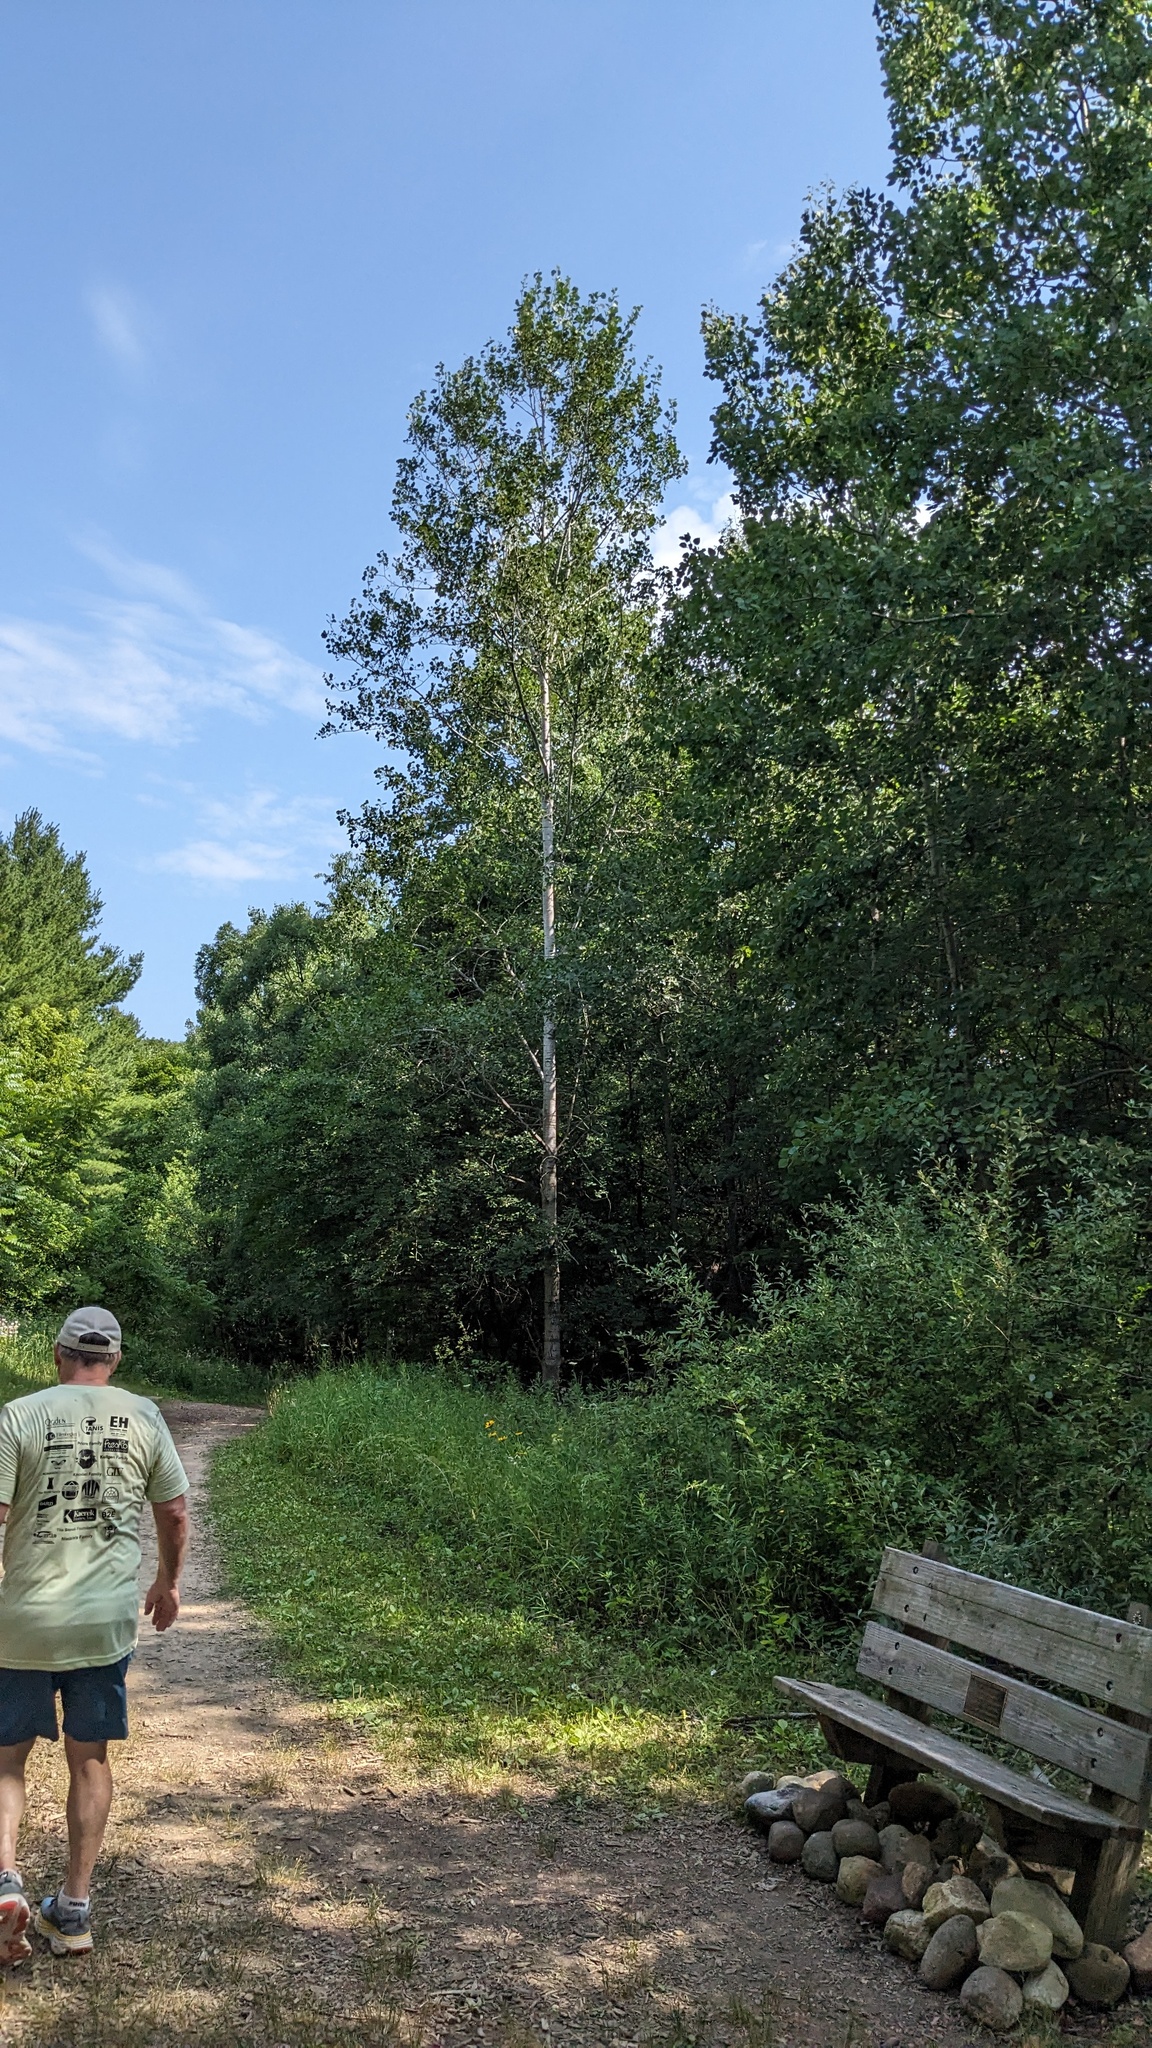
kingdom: Plantae
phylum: Tracheophyta
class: Magnoliopsida
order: Malpighiales
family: Salicaceae
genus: Populus
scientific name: Populus tremuloides
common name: Quaking aspen
